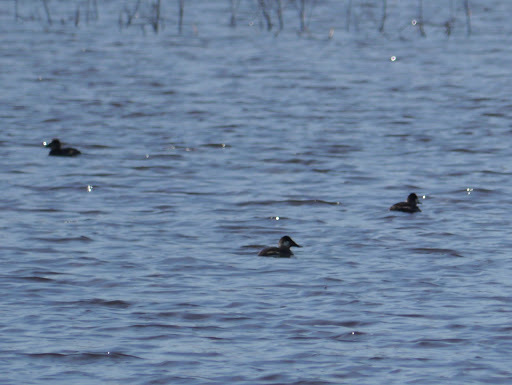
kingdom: Animalia
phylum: Chordata
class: Aves
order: Anseriformes
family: Anatidae
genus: Oxyura
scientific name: Oxyura jamaicensis
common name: Ruddy duck
